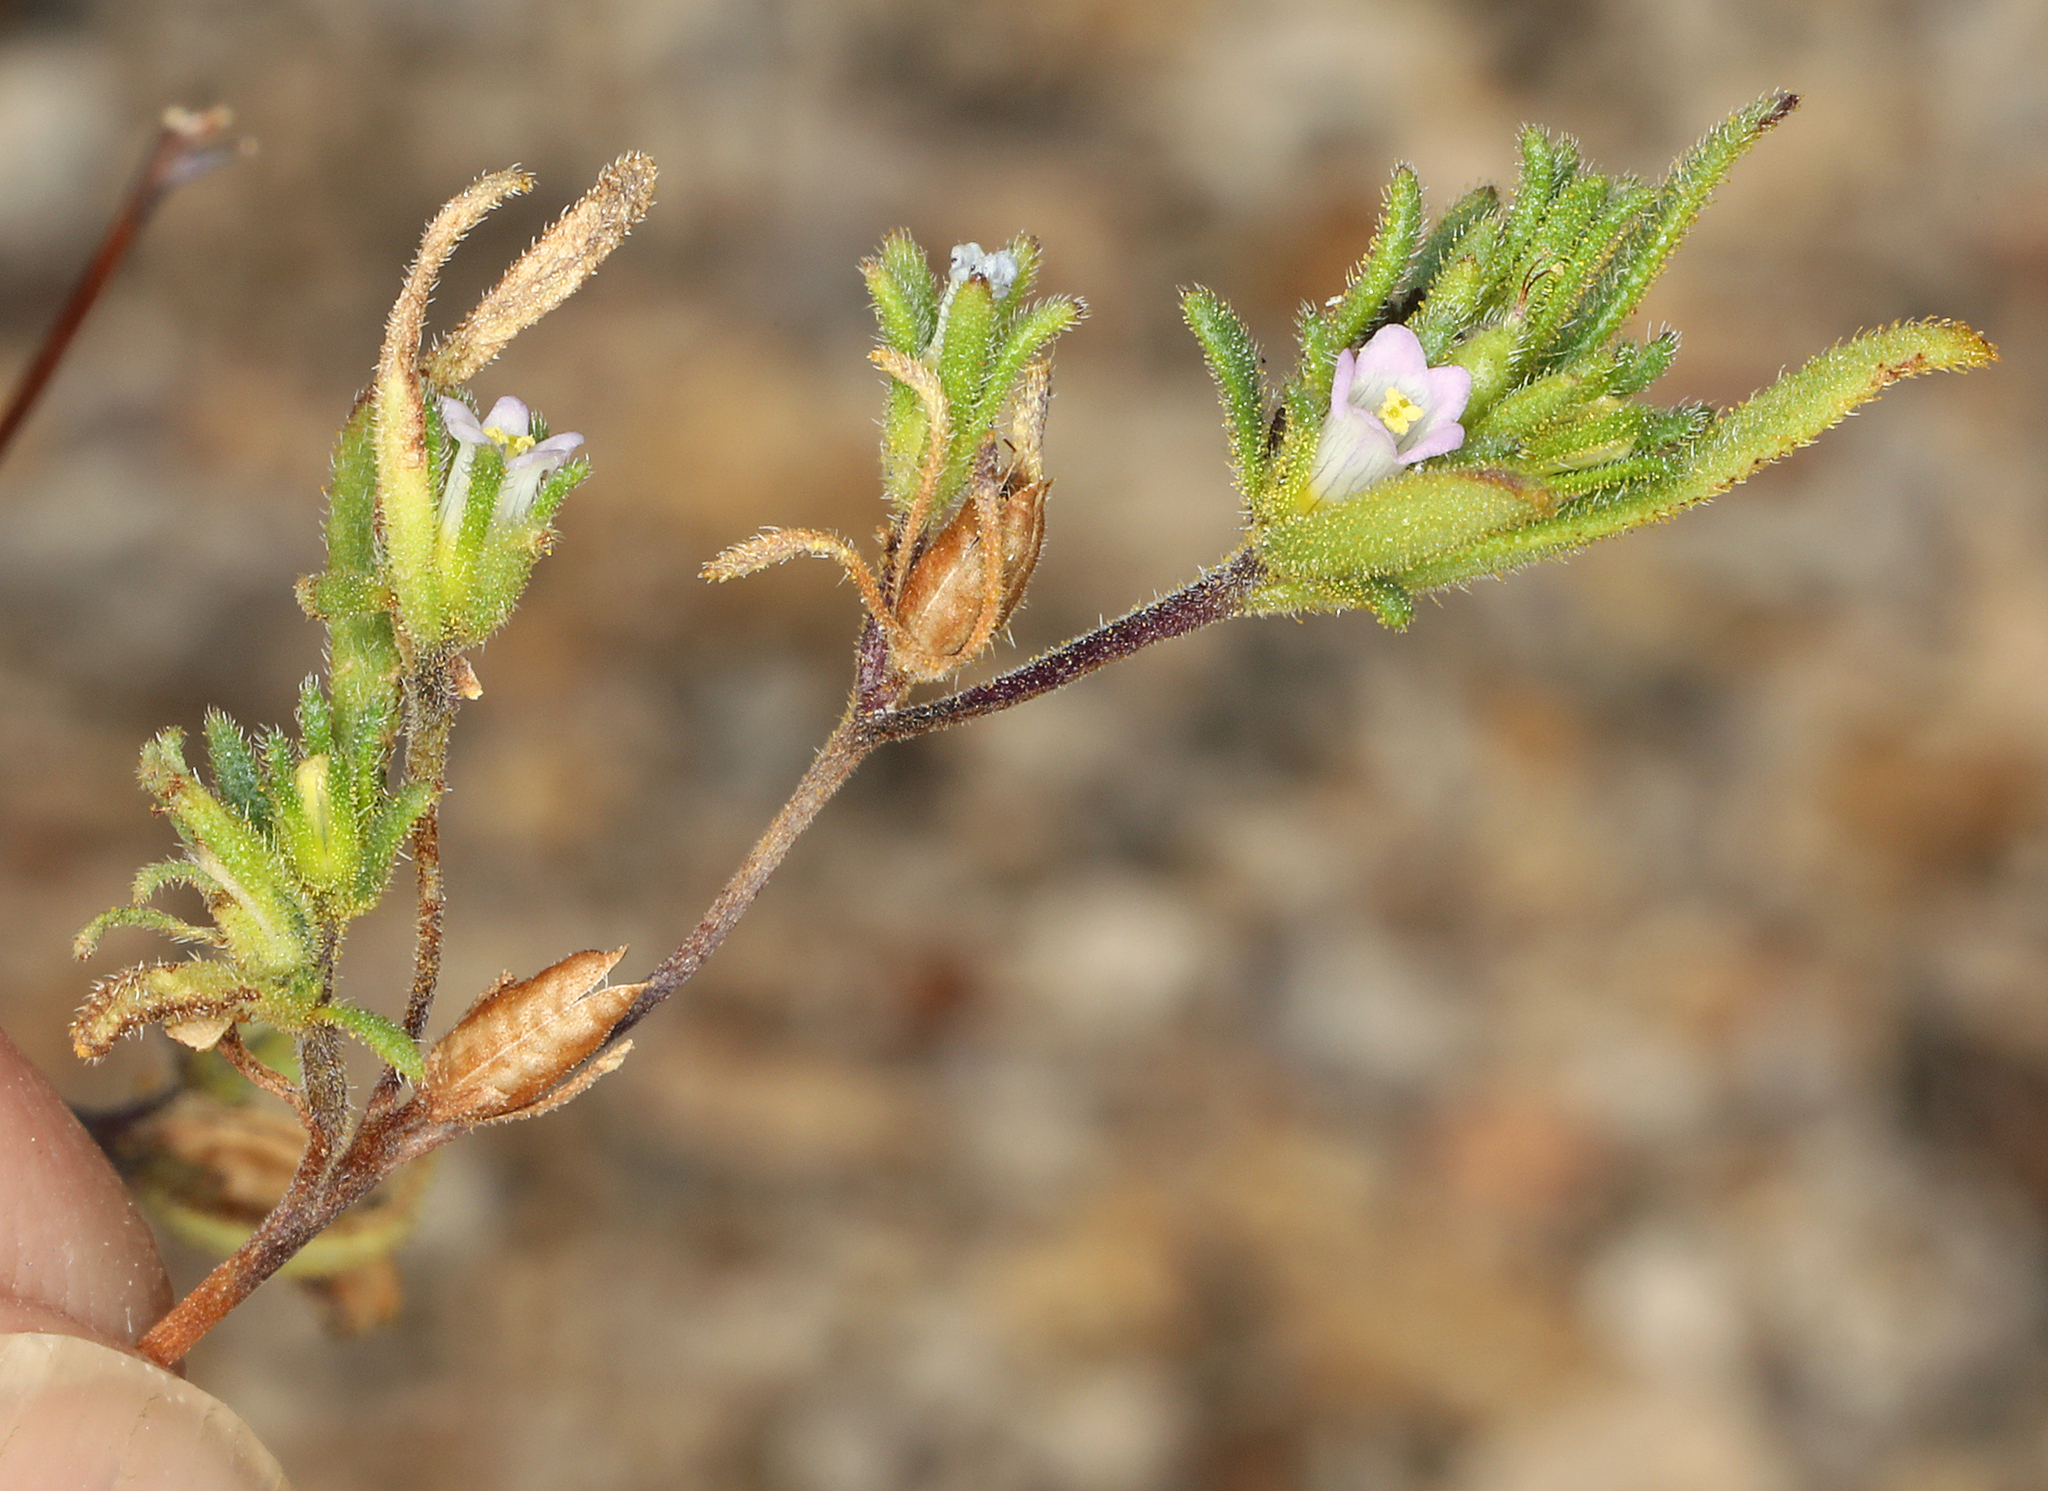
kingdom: Plantae
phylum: Tracheophyta
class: Magnoliopsida
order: Boraginales
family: Namaceae
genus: Nama
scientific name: Nama dichotoma
